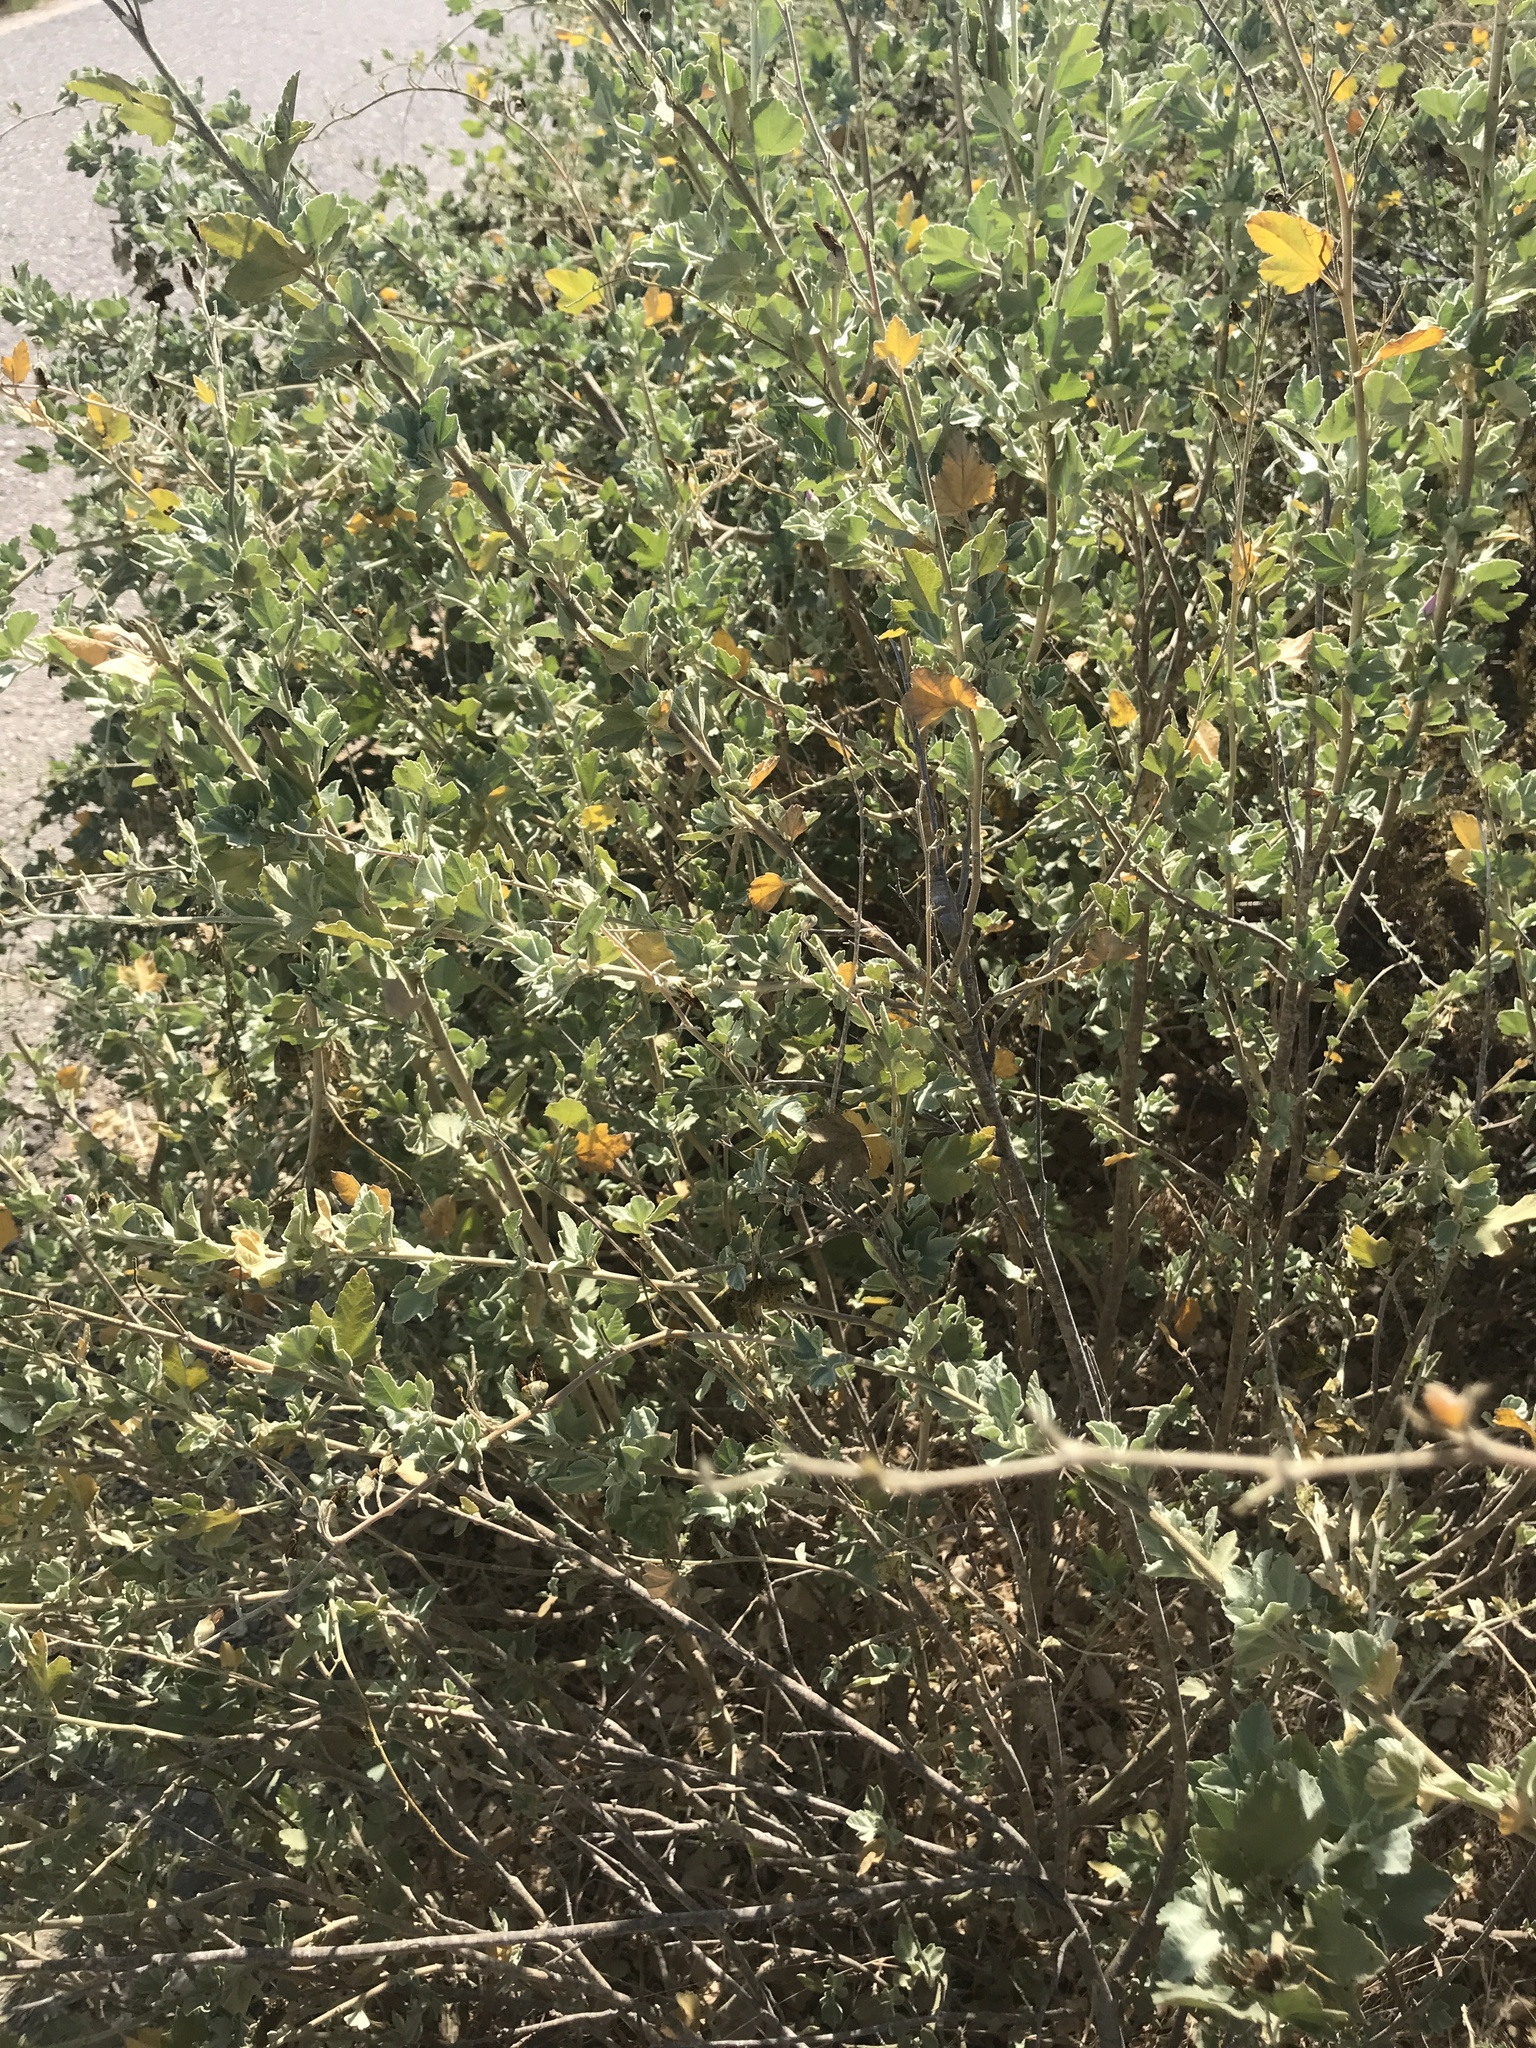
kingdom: Plantae
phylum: Tracheophyta
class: Magnoliopsida
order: Malvales
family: Malvaceae
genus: Malacothamnus
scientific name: Malacothamnus fasciculatus
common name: Sant cruz island bush-mallow
